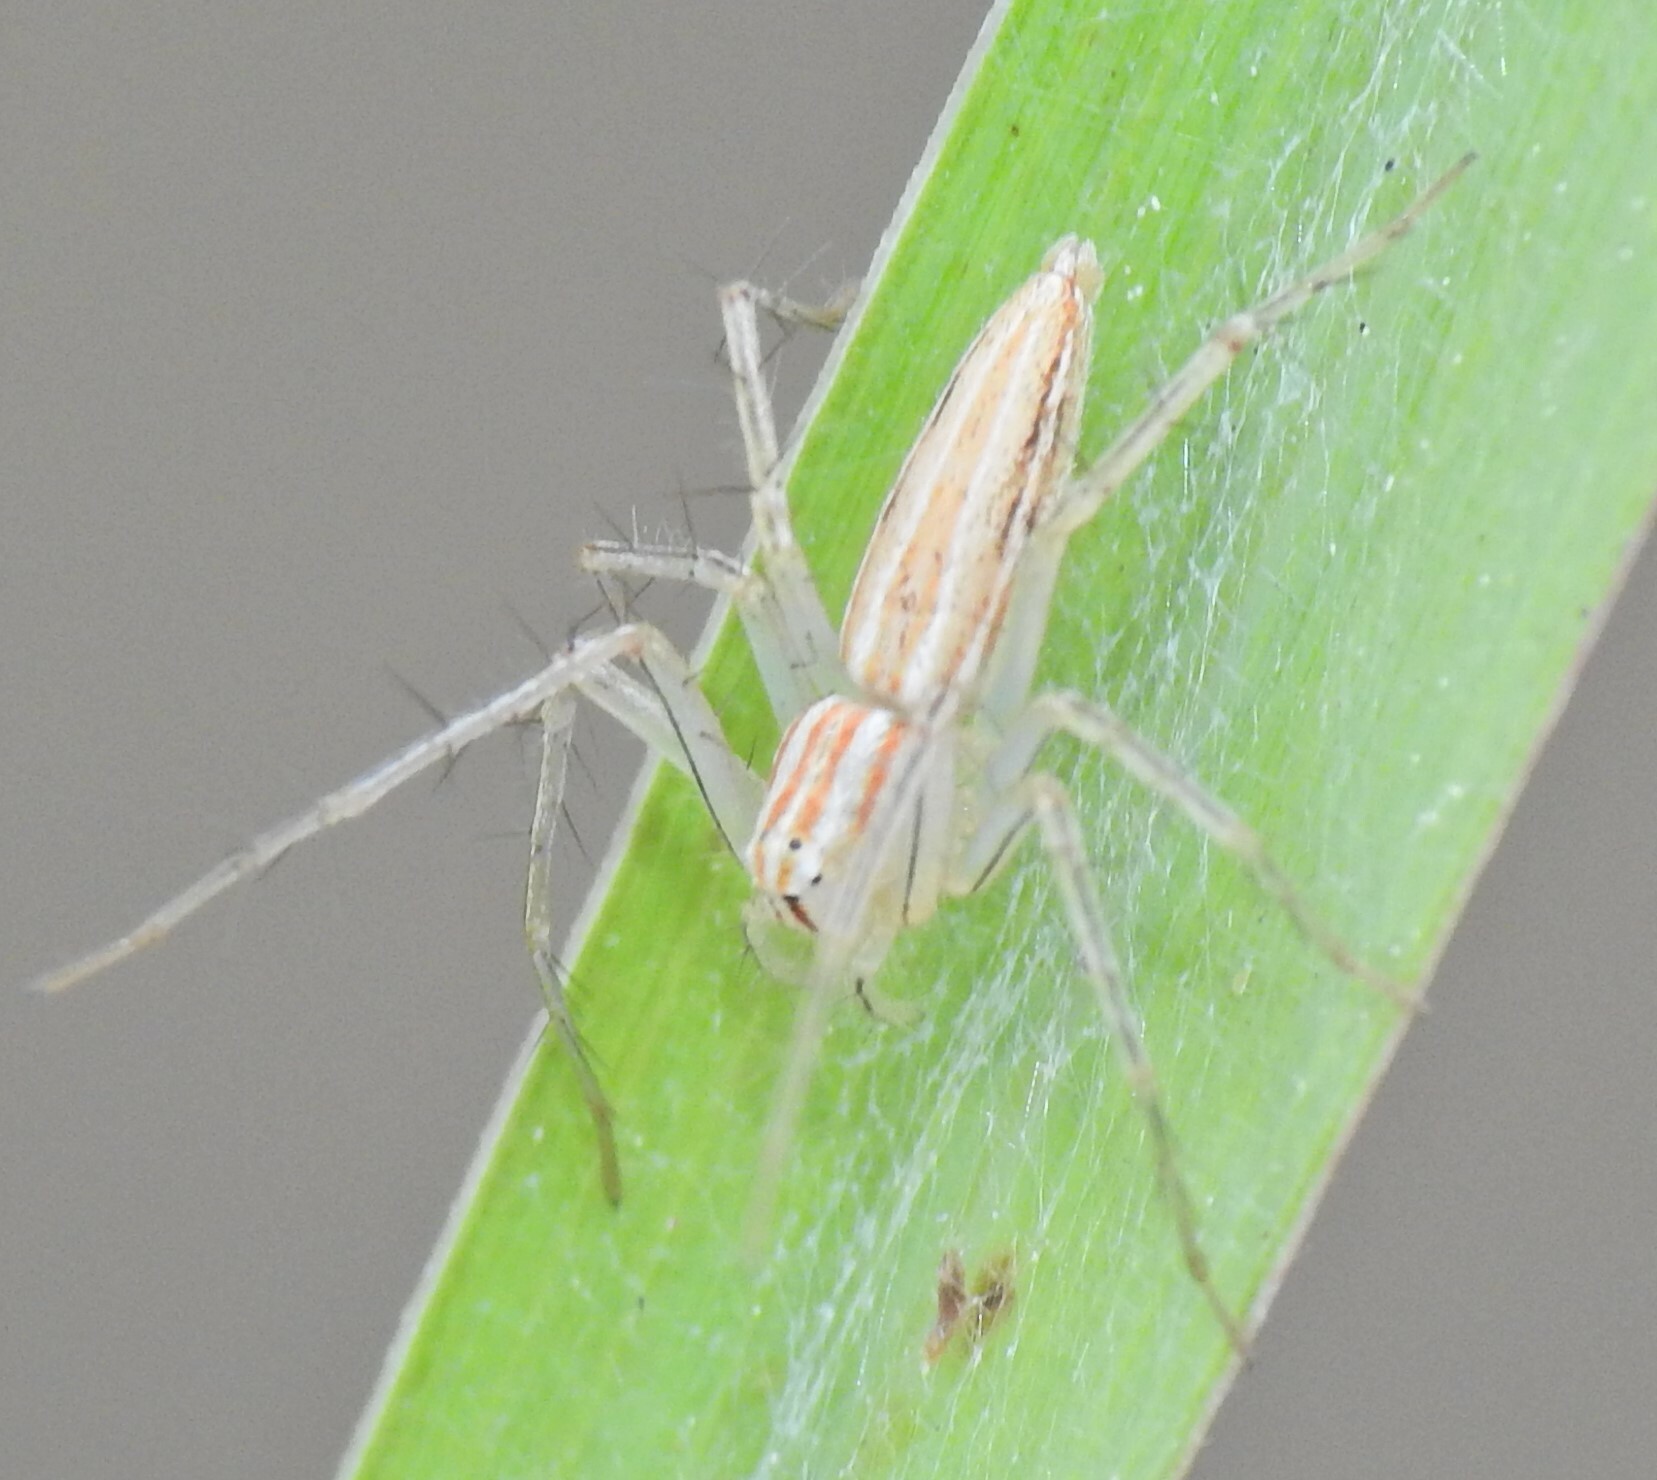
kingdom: Animalia
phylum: Arthropoda
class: Arachnida
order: Araneae
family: Oxyopidae
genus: Oxyopes
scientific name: Oxyopes macilentus
